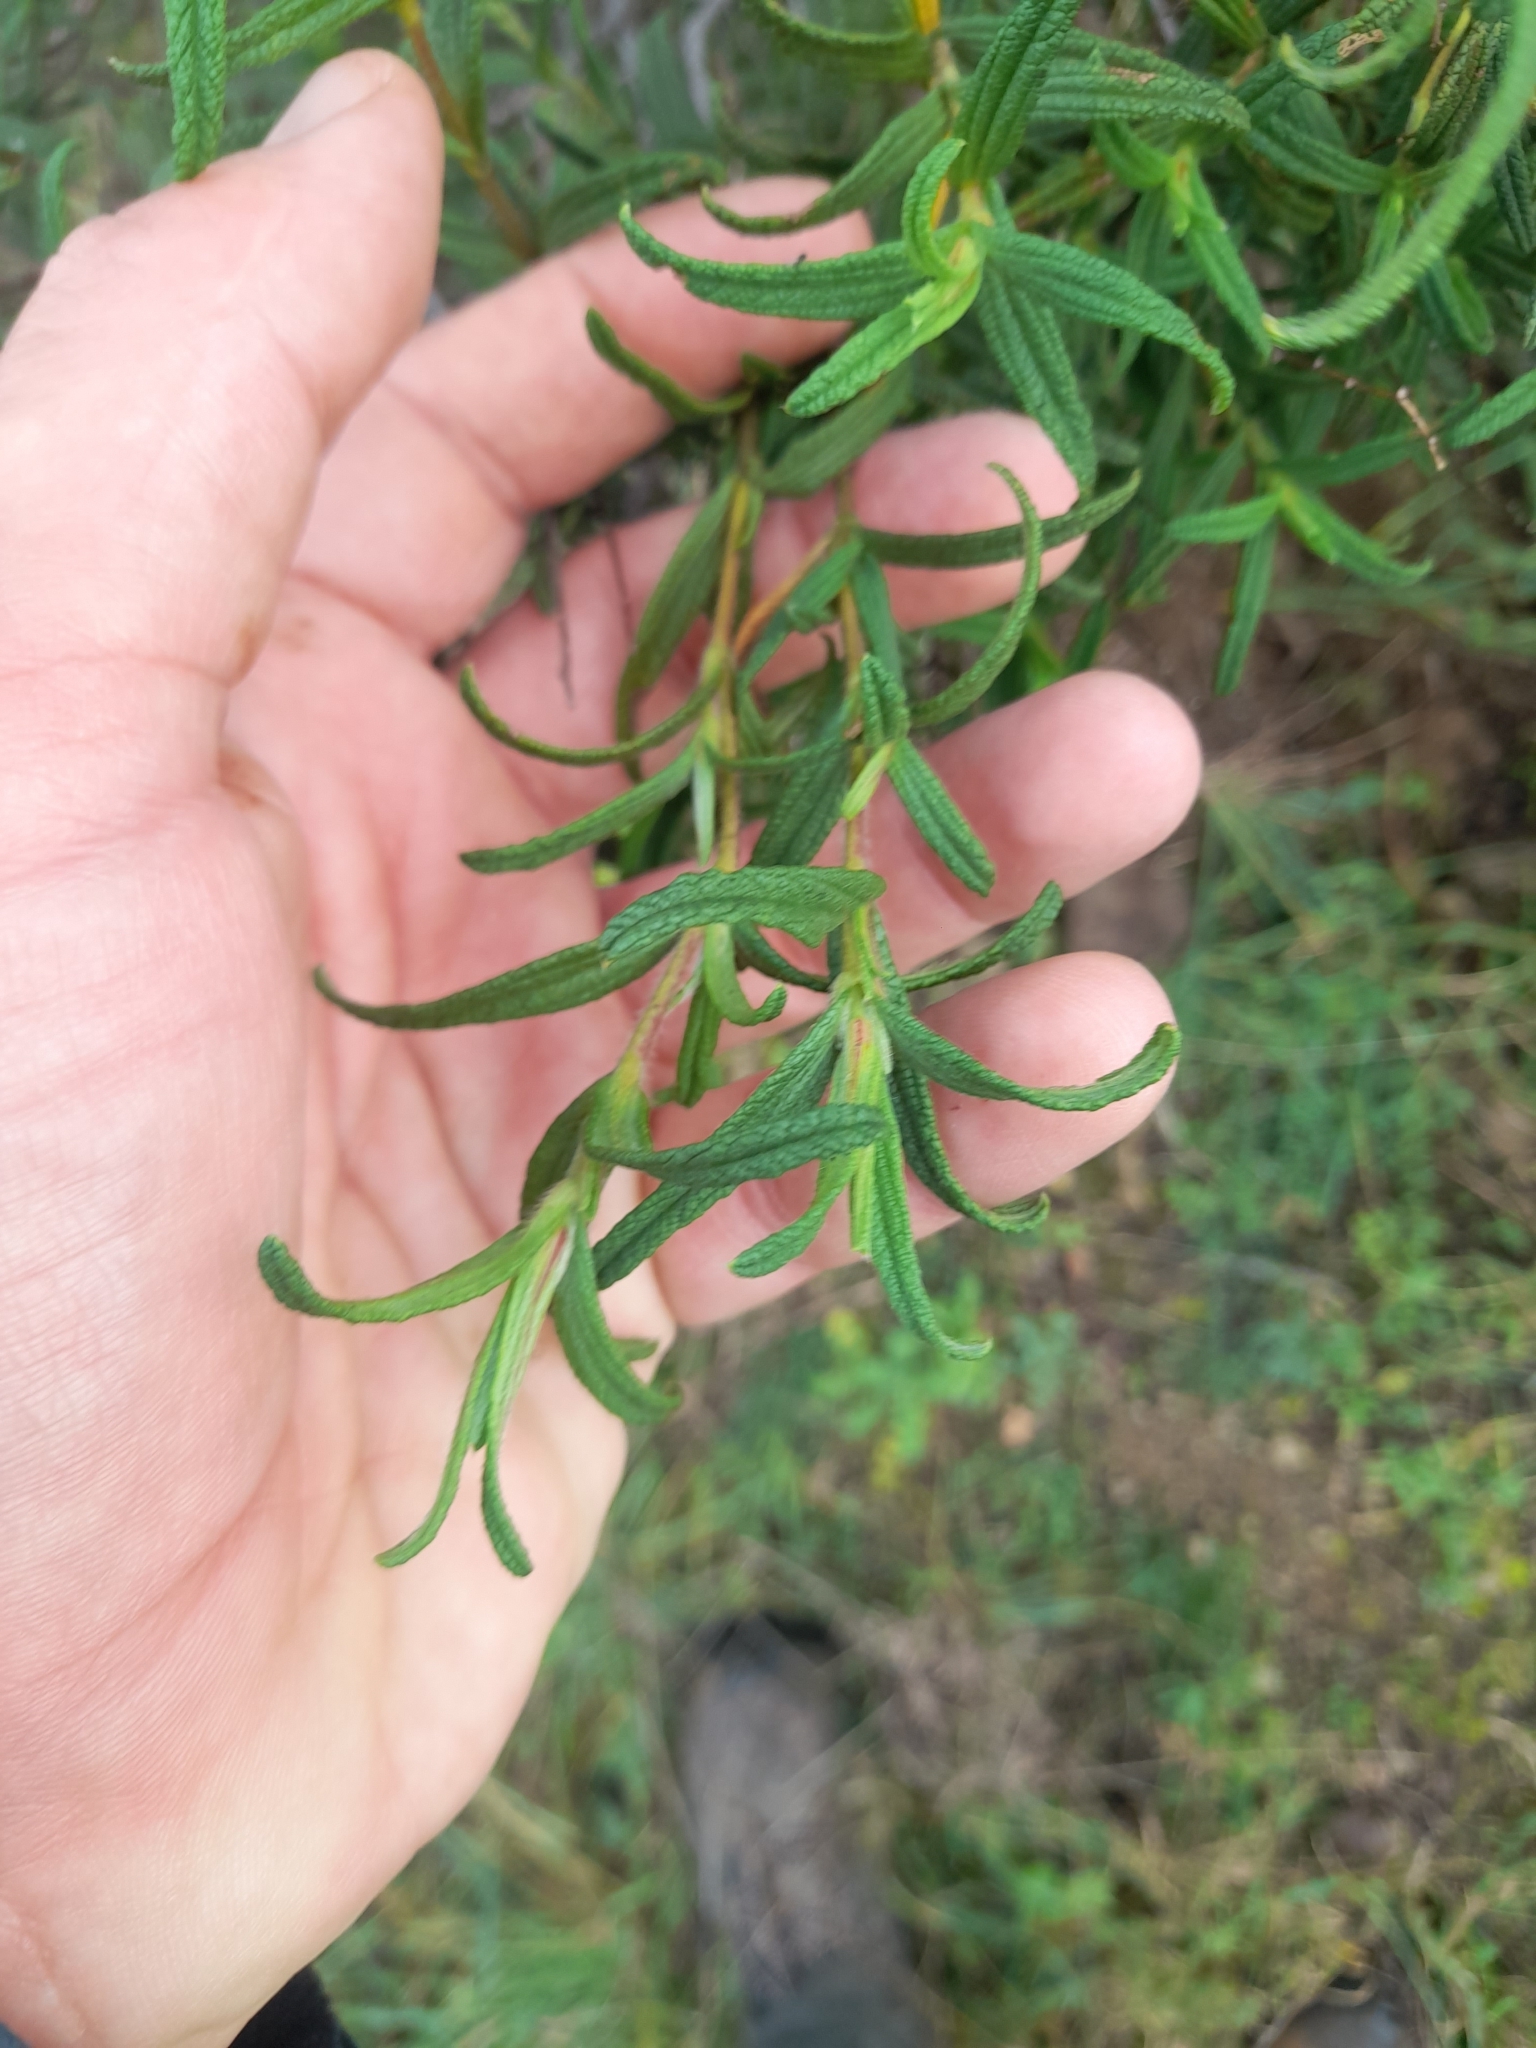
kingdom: Plantae
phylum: Tracheophyta
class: Magnoliopsida
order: Malvales
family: Cistaceae
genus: Cistus
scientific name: Cistus monspeliensis
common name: Montpelier cistus
